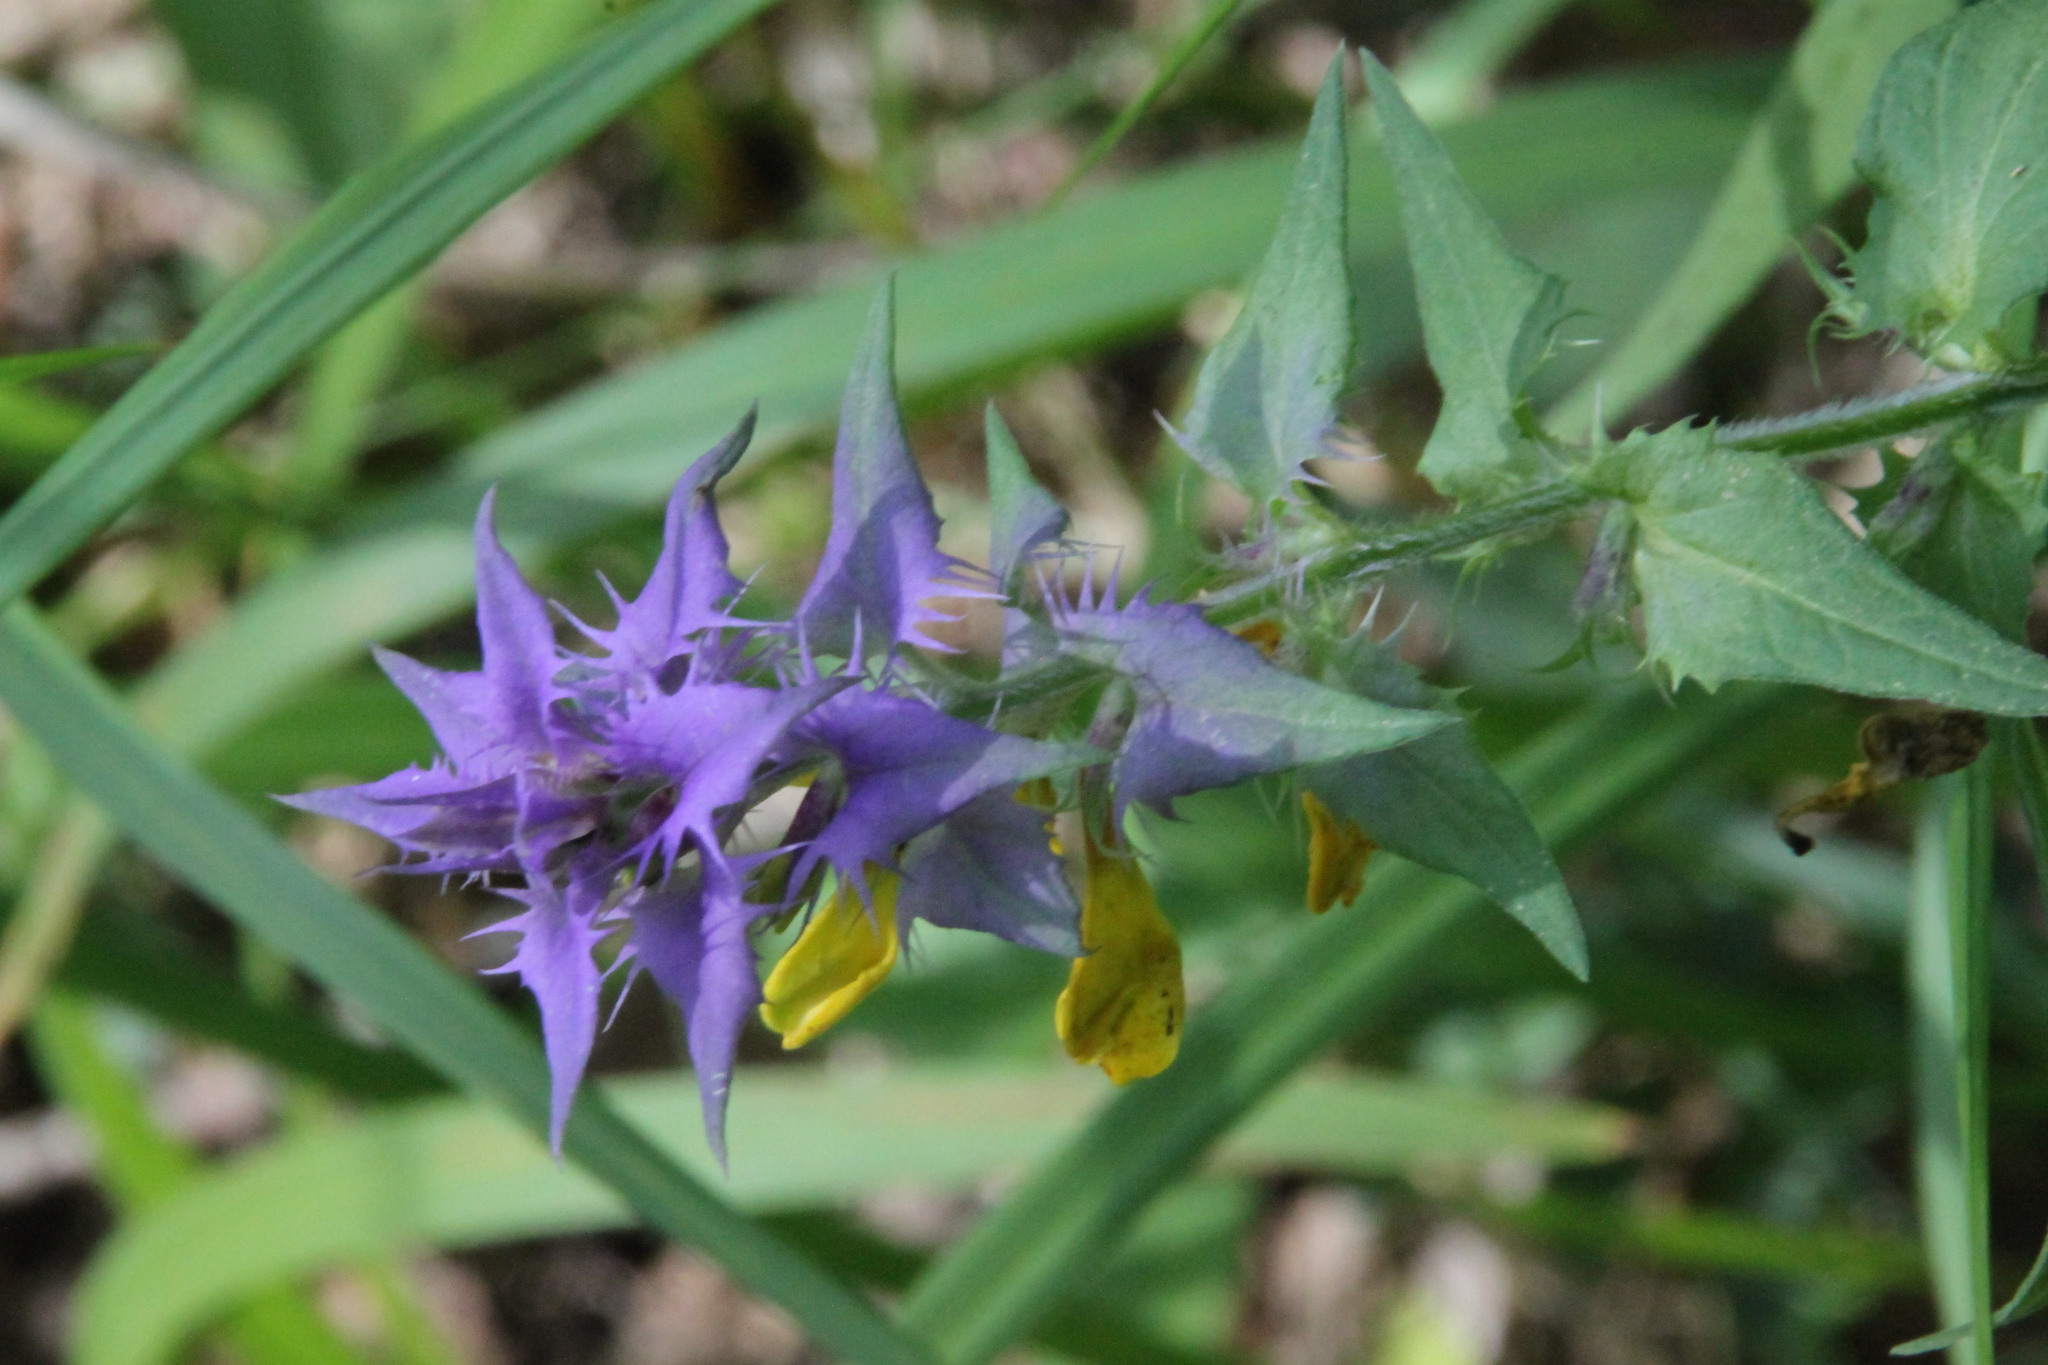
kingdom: Plantae
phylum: Tracheophyta
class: Magnoliopsida
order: Lamiales
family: Orobanchaceae
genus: Melampyrum
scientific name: Melampyrum nemorosum
